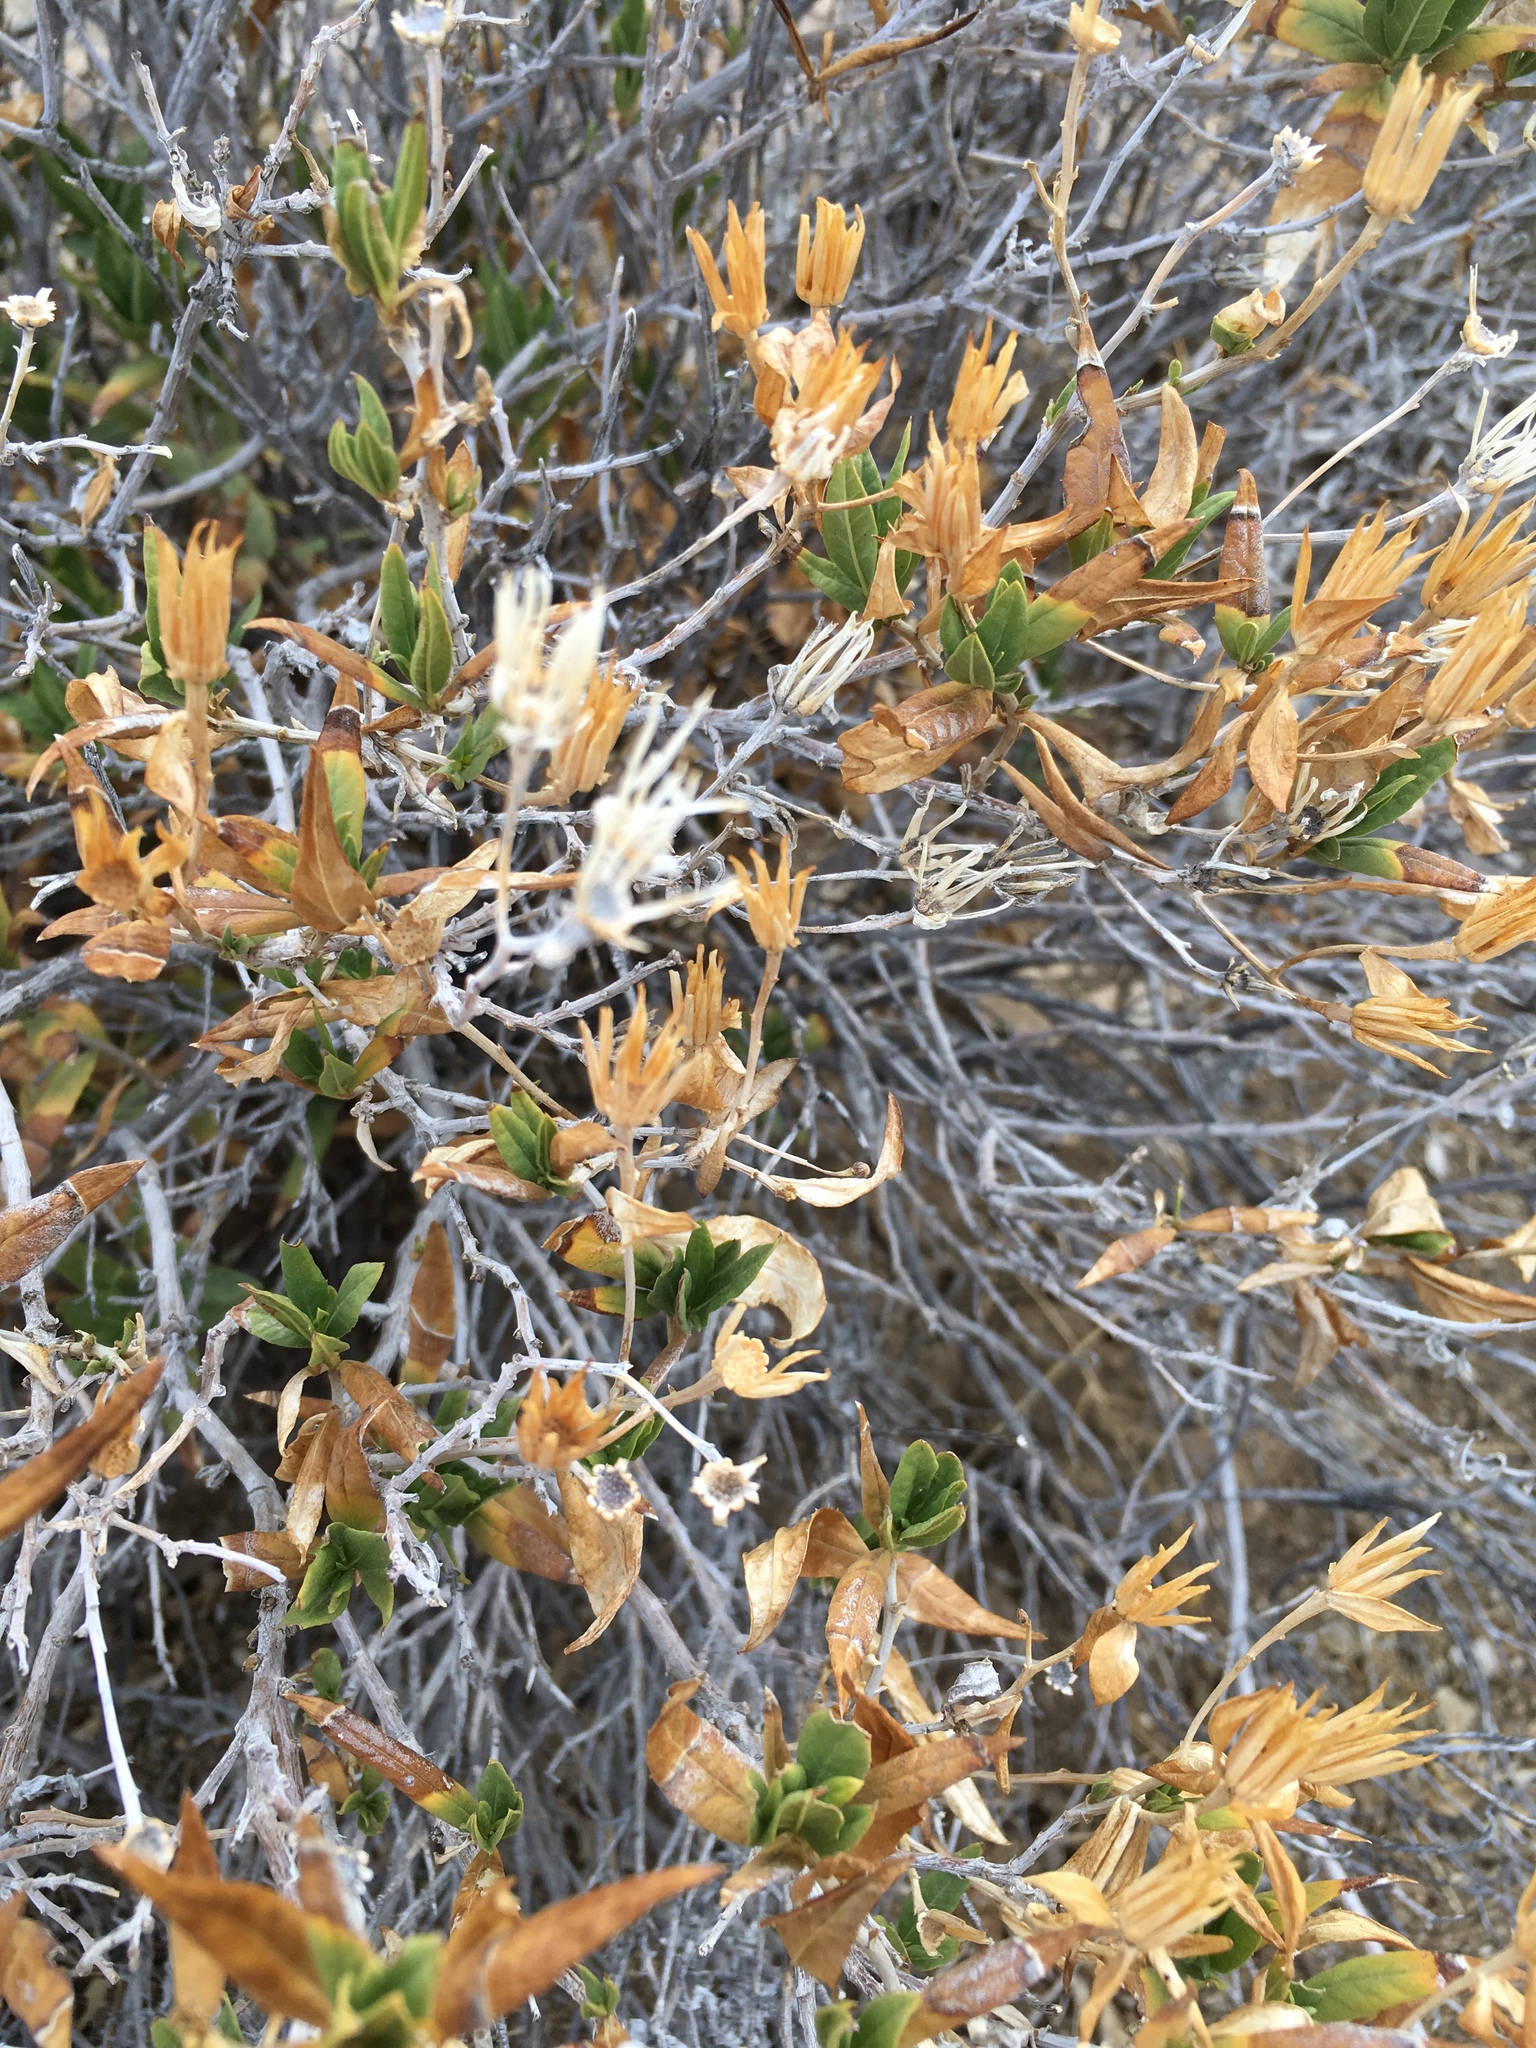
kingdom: Plantae
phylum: Tracheophyta
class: Magnoliopsida
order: Asterales
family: Asteraceae
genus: Trixis
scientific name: Trixis californica
